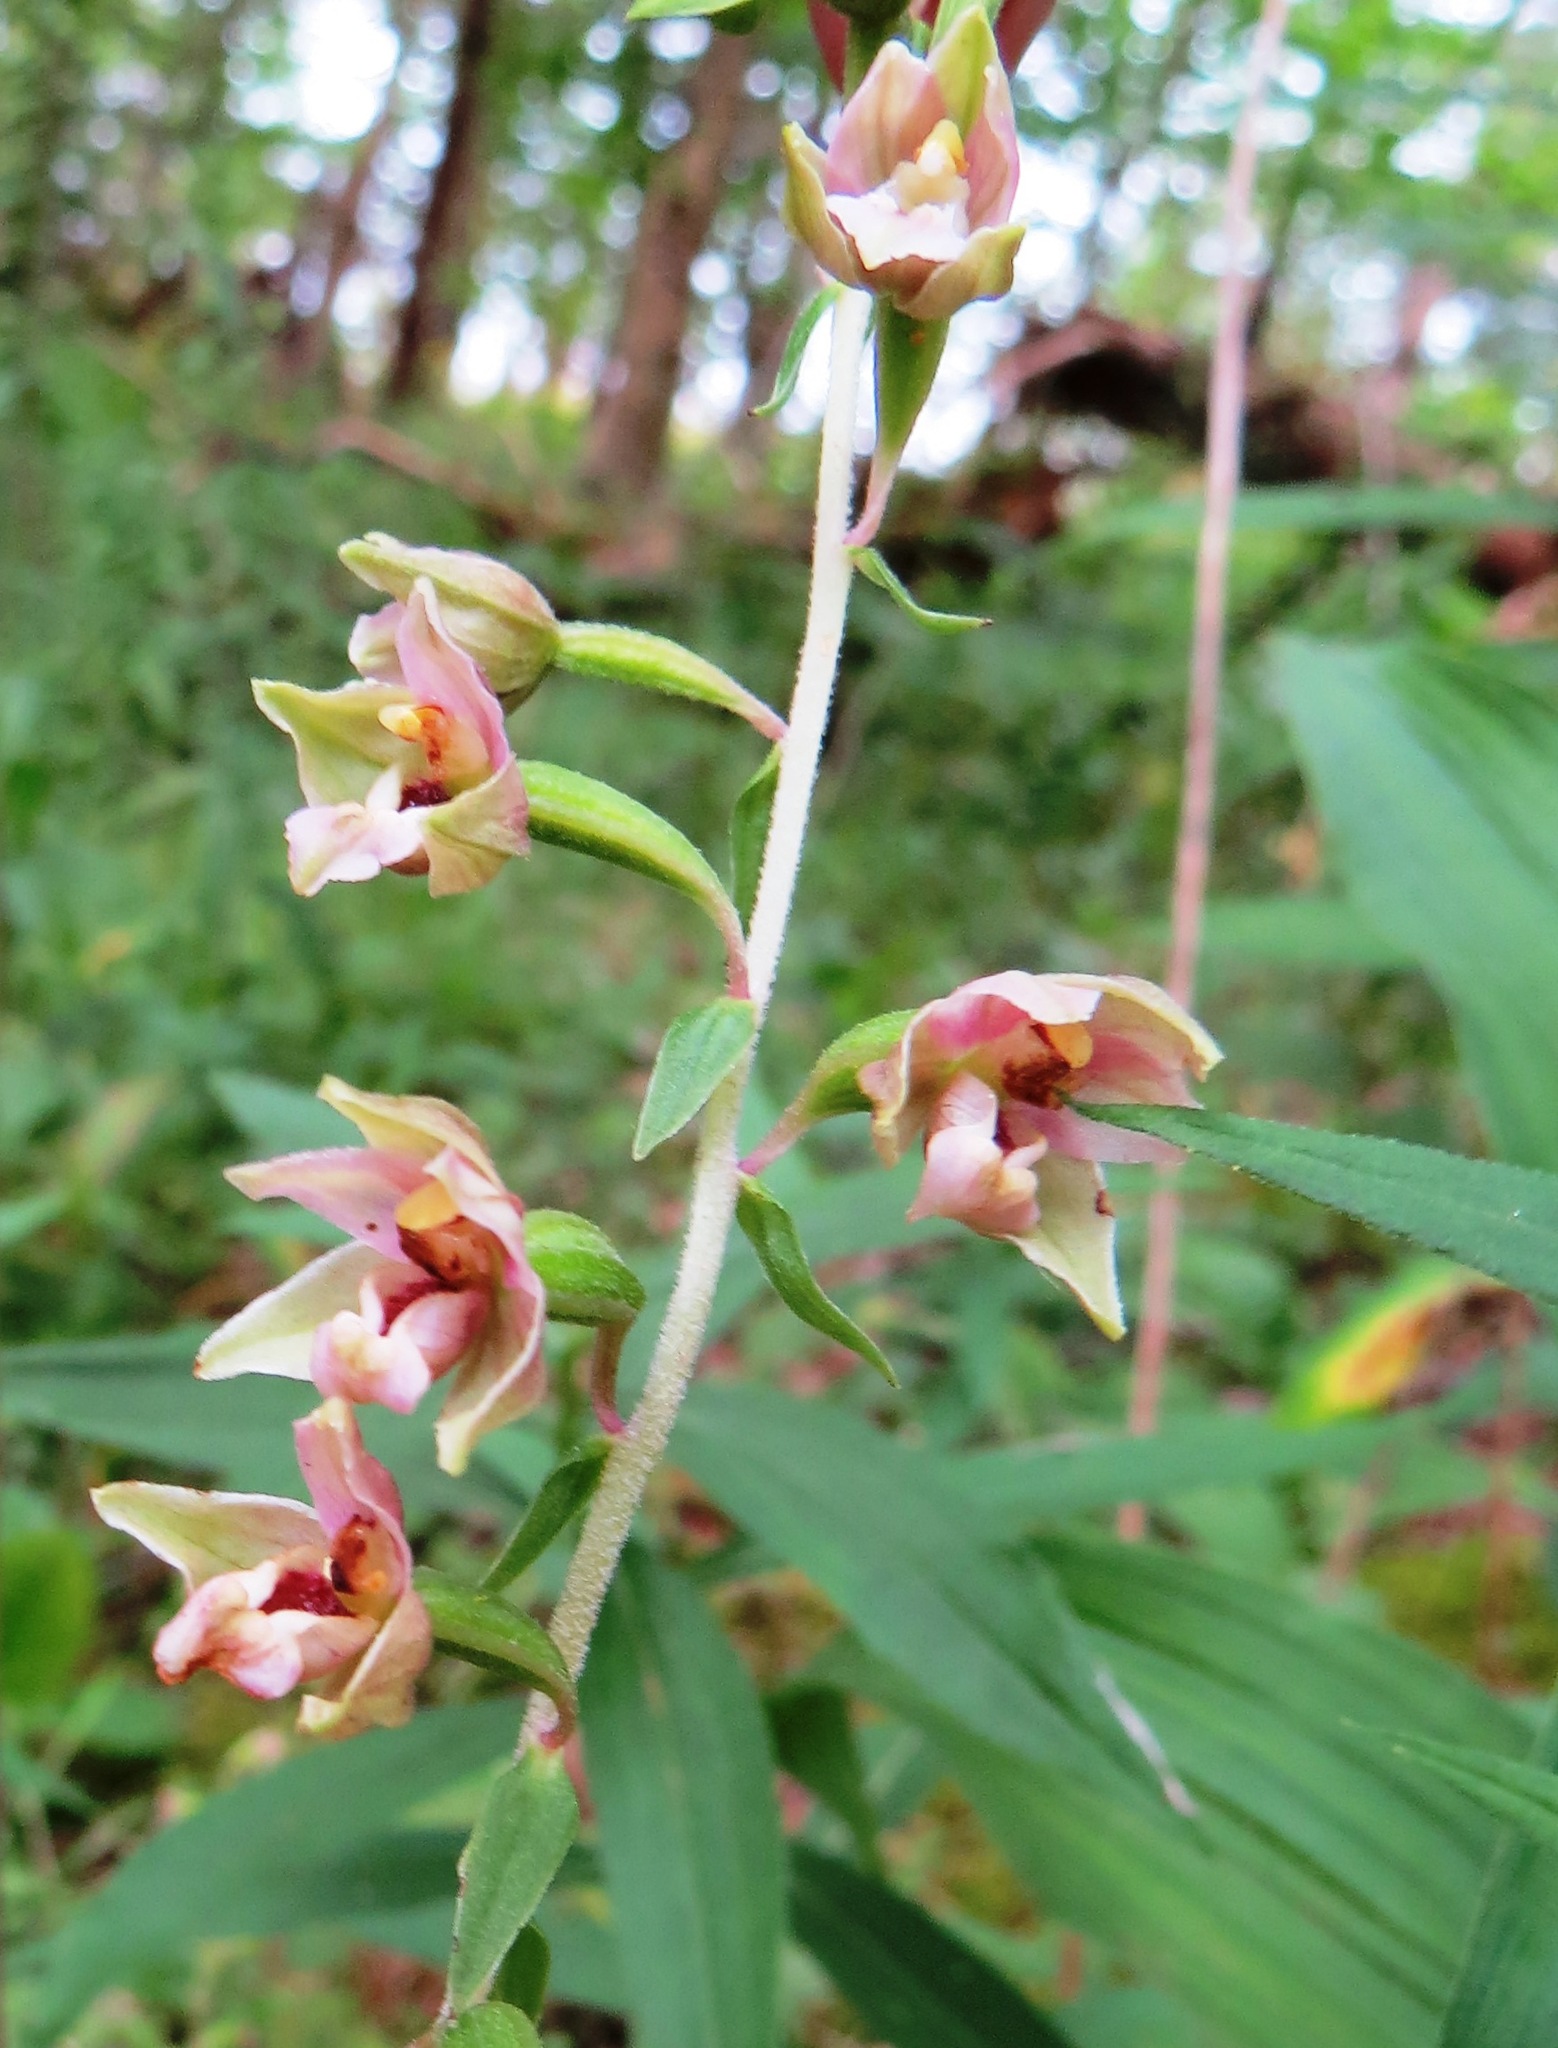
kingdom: Plantae
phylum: Tracheophyta
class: Liliopsida
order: Asparagales
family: Orchidaceae
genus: Epipactis
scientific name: Epipactis helleborine
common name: Broad-leaved helleborine
